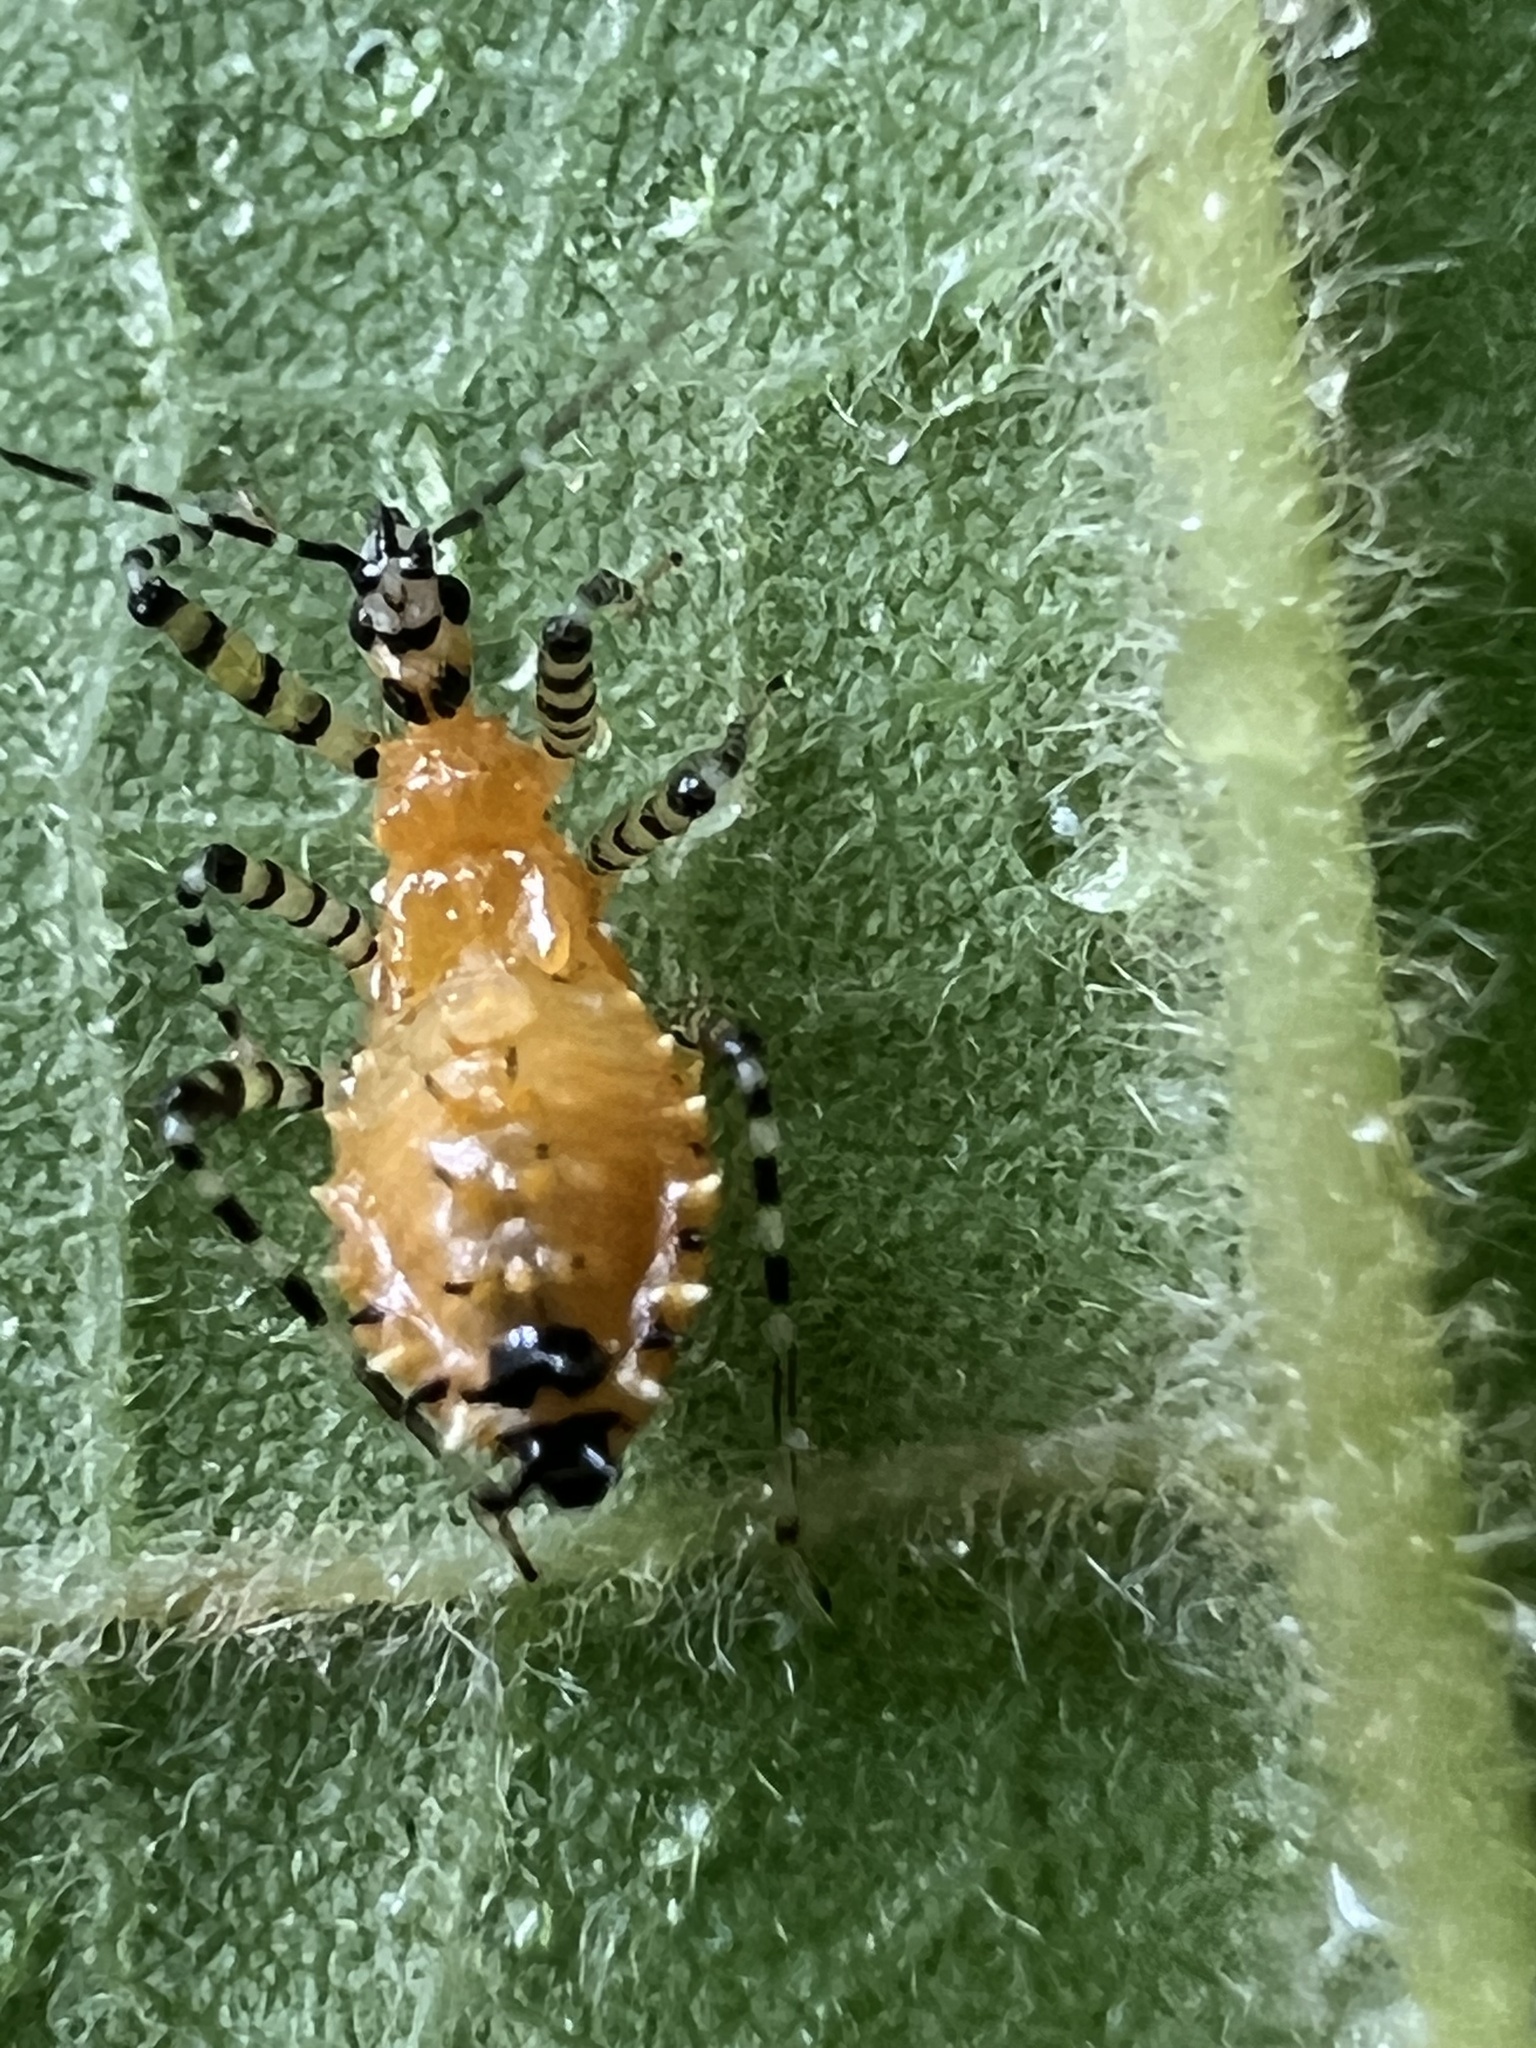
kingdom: Animalia
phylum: Arthropoda
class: Insecta
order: Hemiptera
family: Reduviidae
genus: Pselliopus
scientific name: Pselliopus barberi
